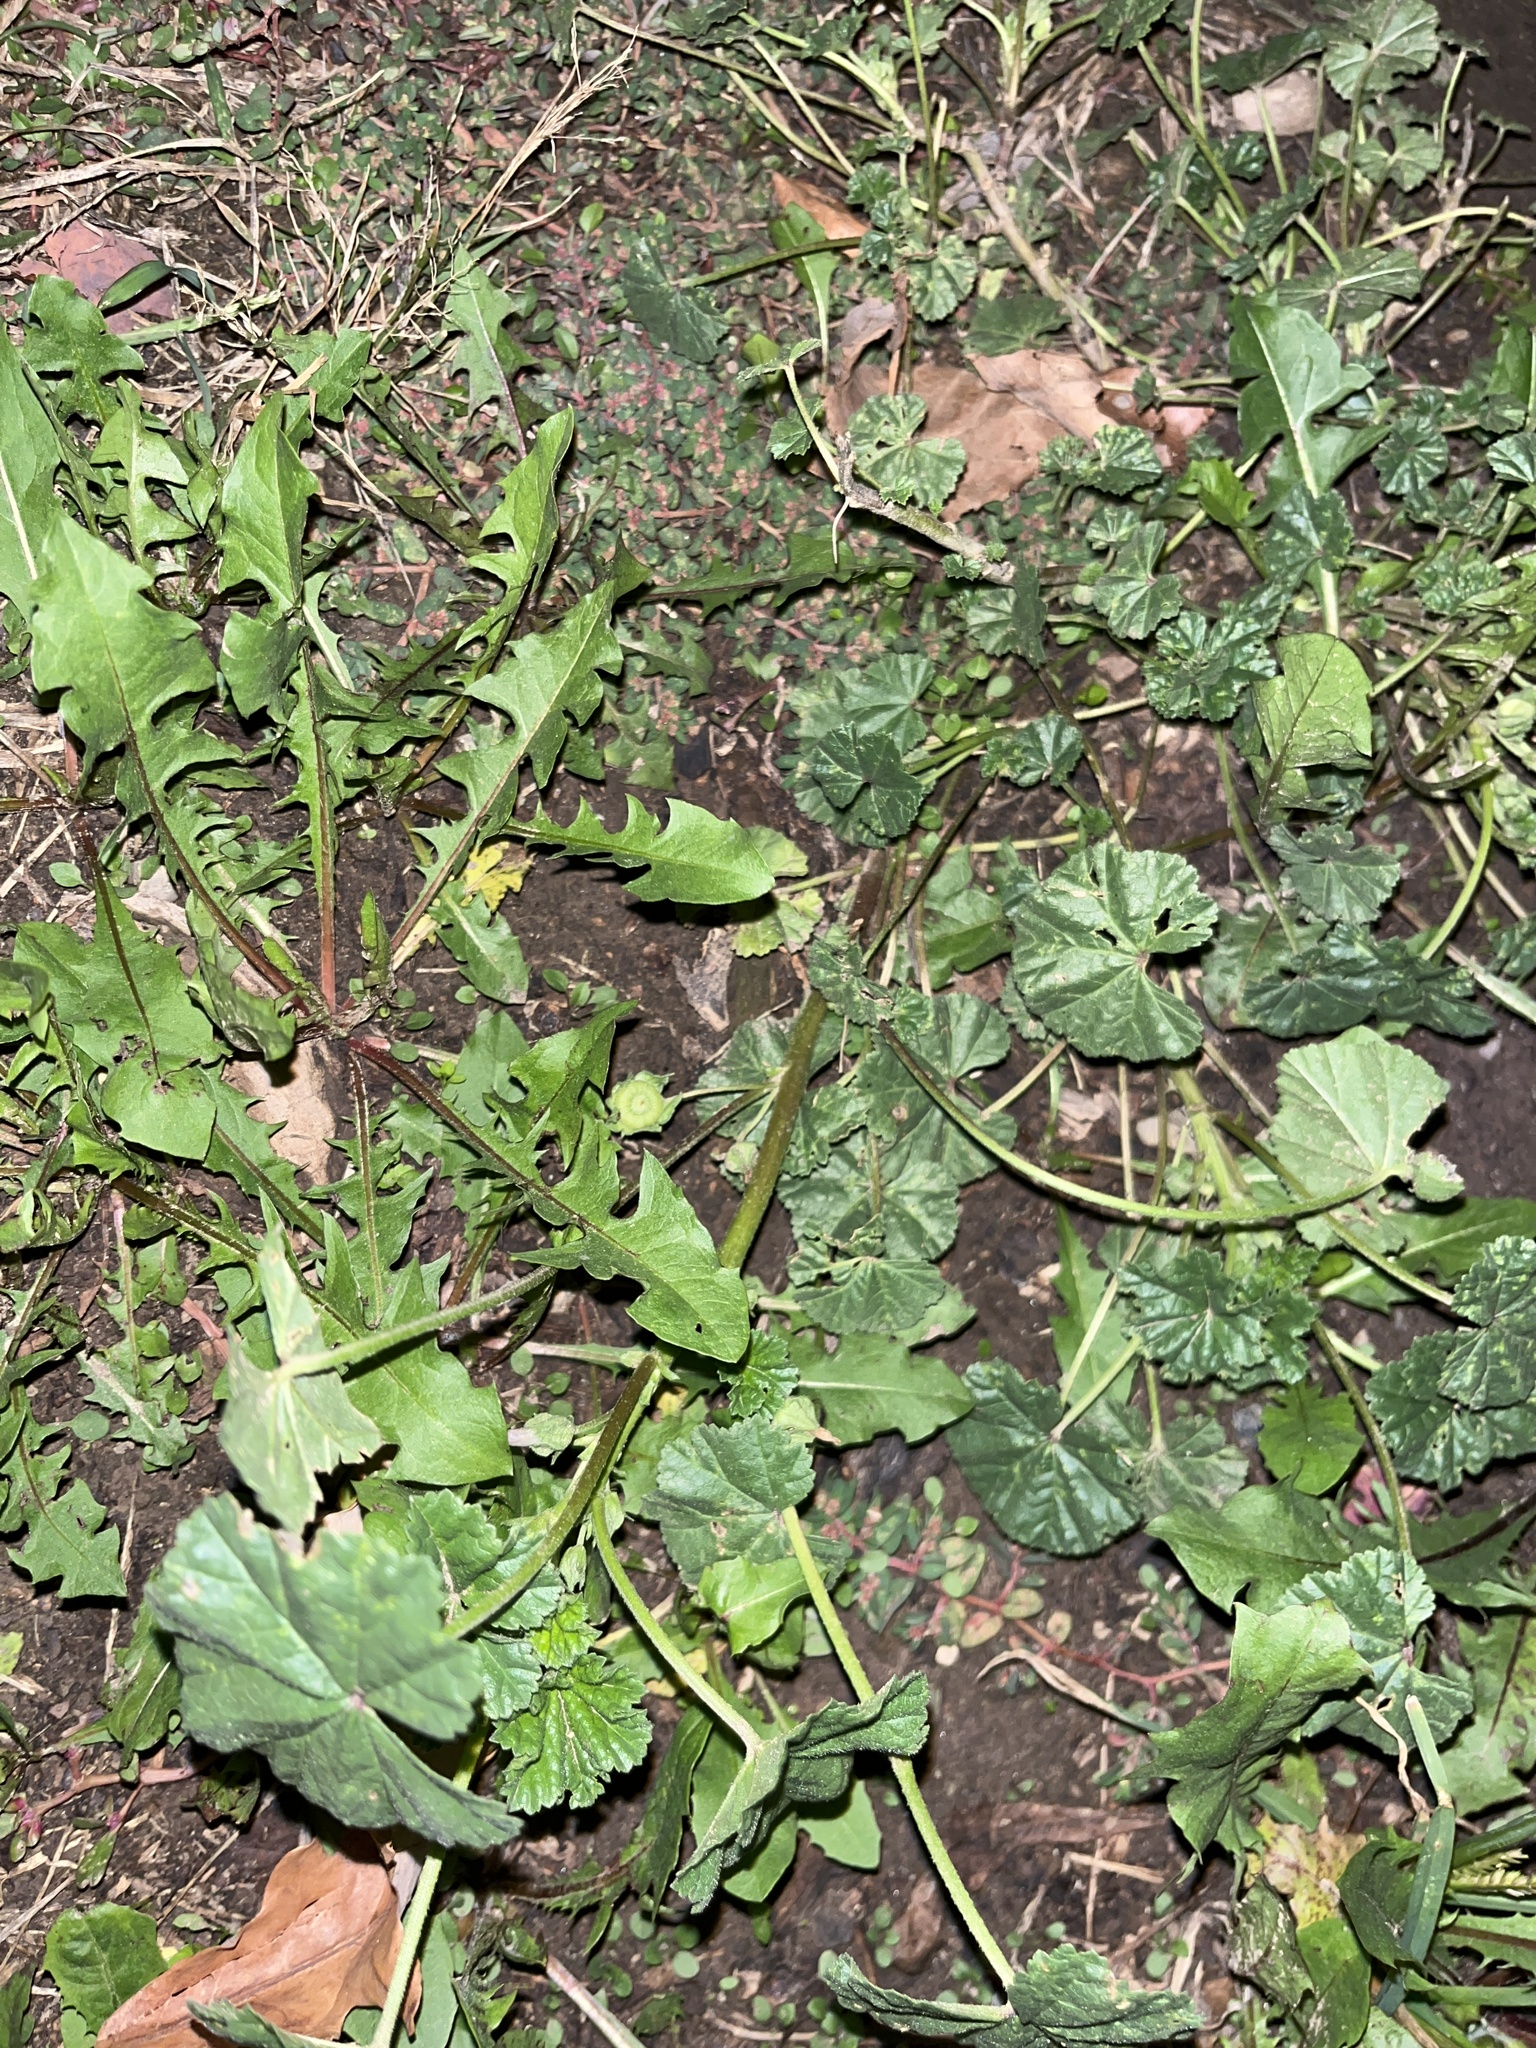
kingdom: Plantae
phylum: Tracheophyta
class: Magnoliopsida
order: Malvales
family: Malvaceae
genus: Malva
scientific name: Malva neglecta
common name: Common mallow
